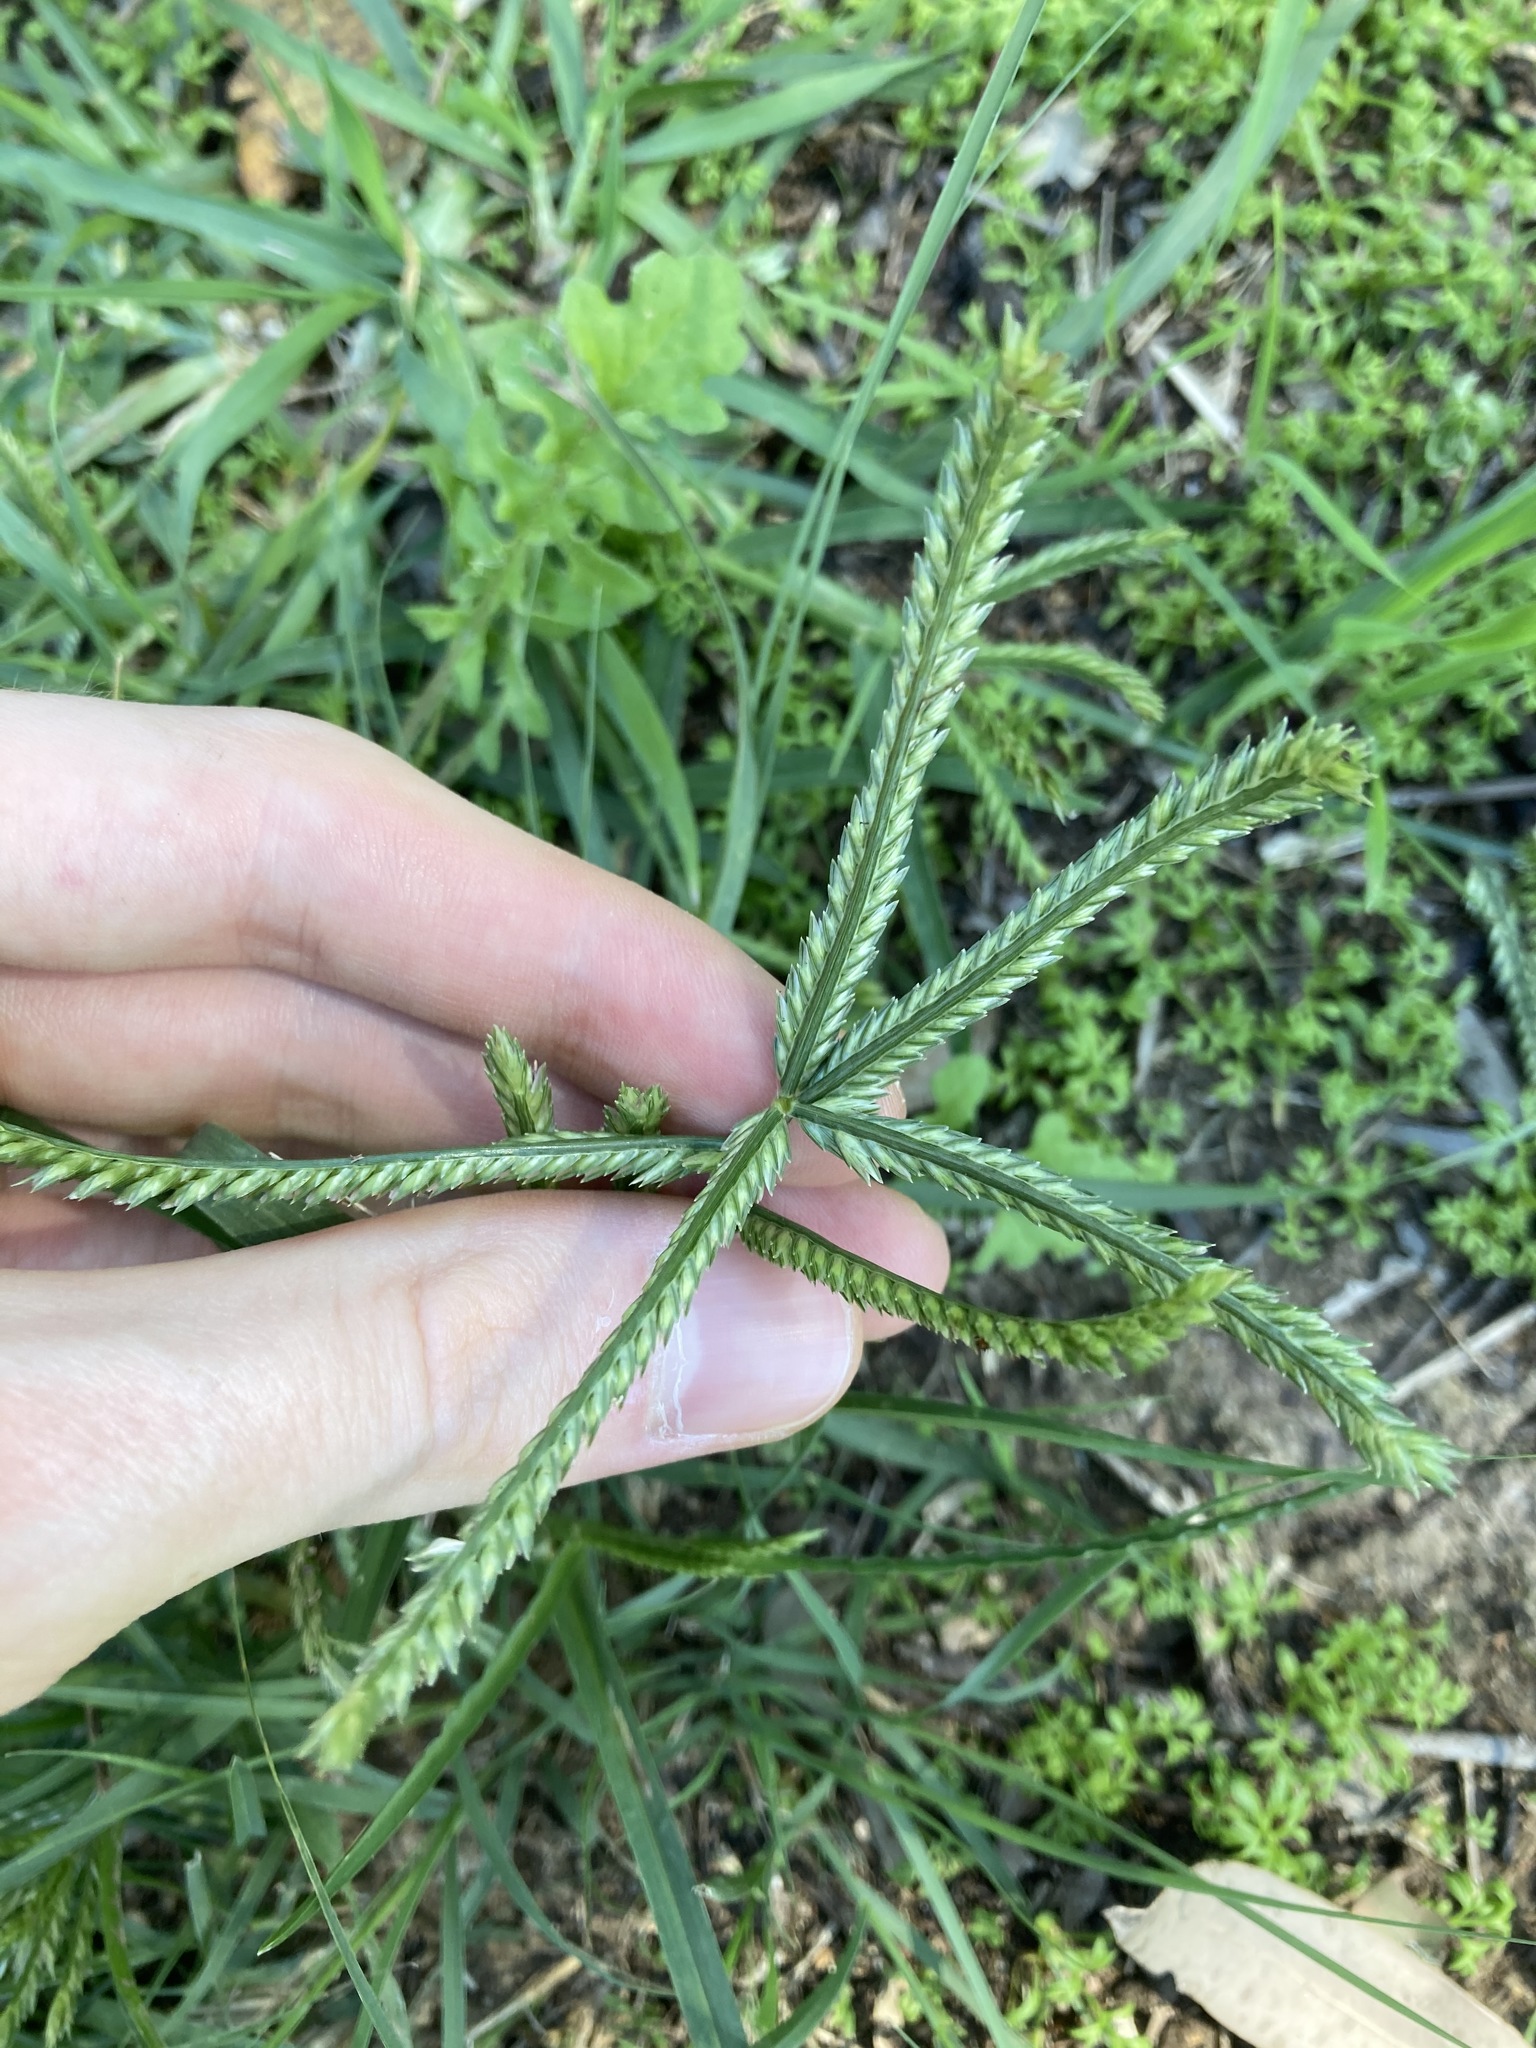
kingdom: Plantae
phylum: Tracheophyta
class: Liliopsida
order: Poales
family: Poaceae
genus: Eleusine
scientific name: Eleusine indica
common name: Yard-grass
